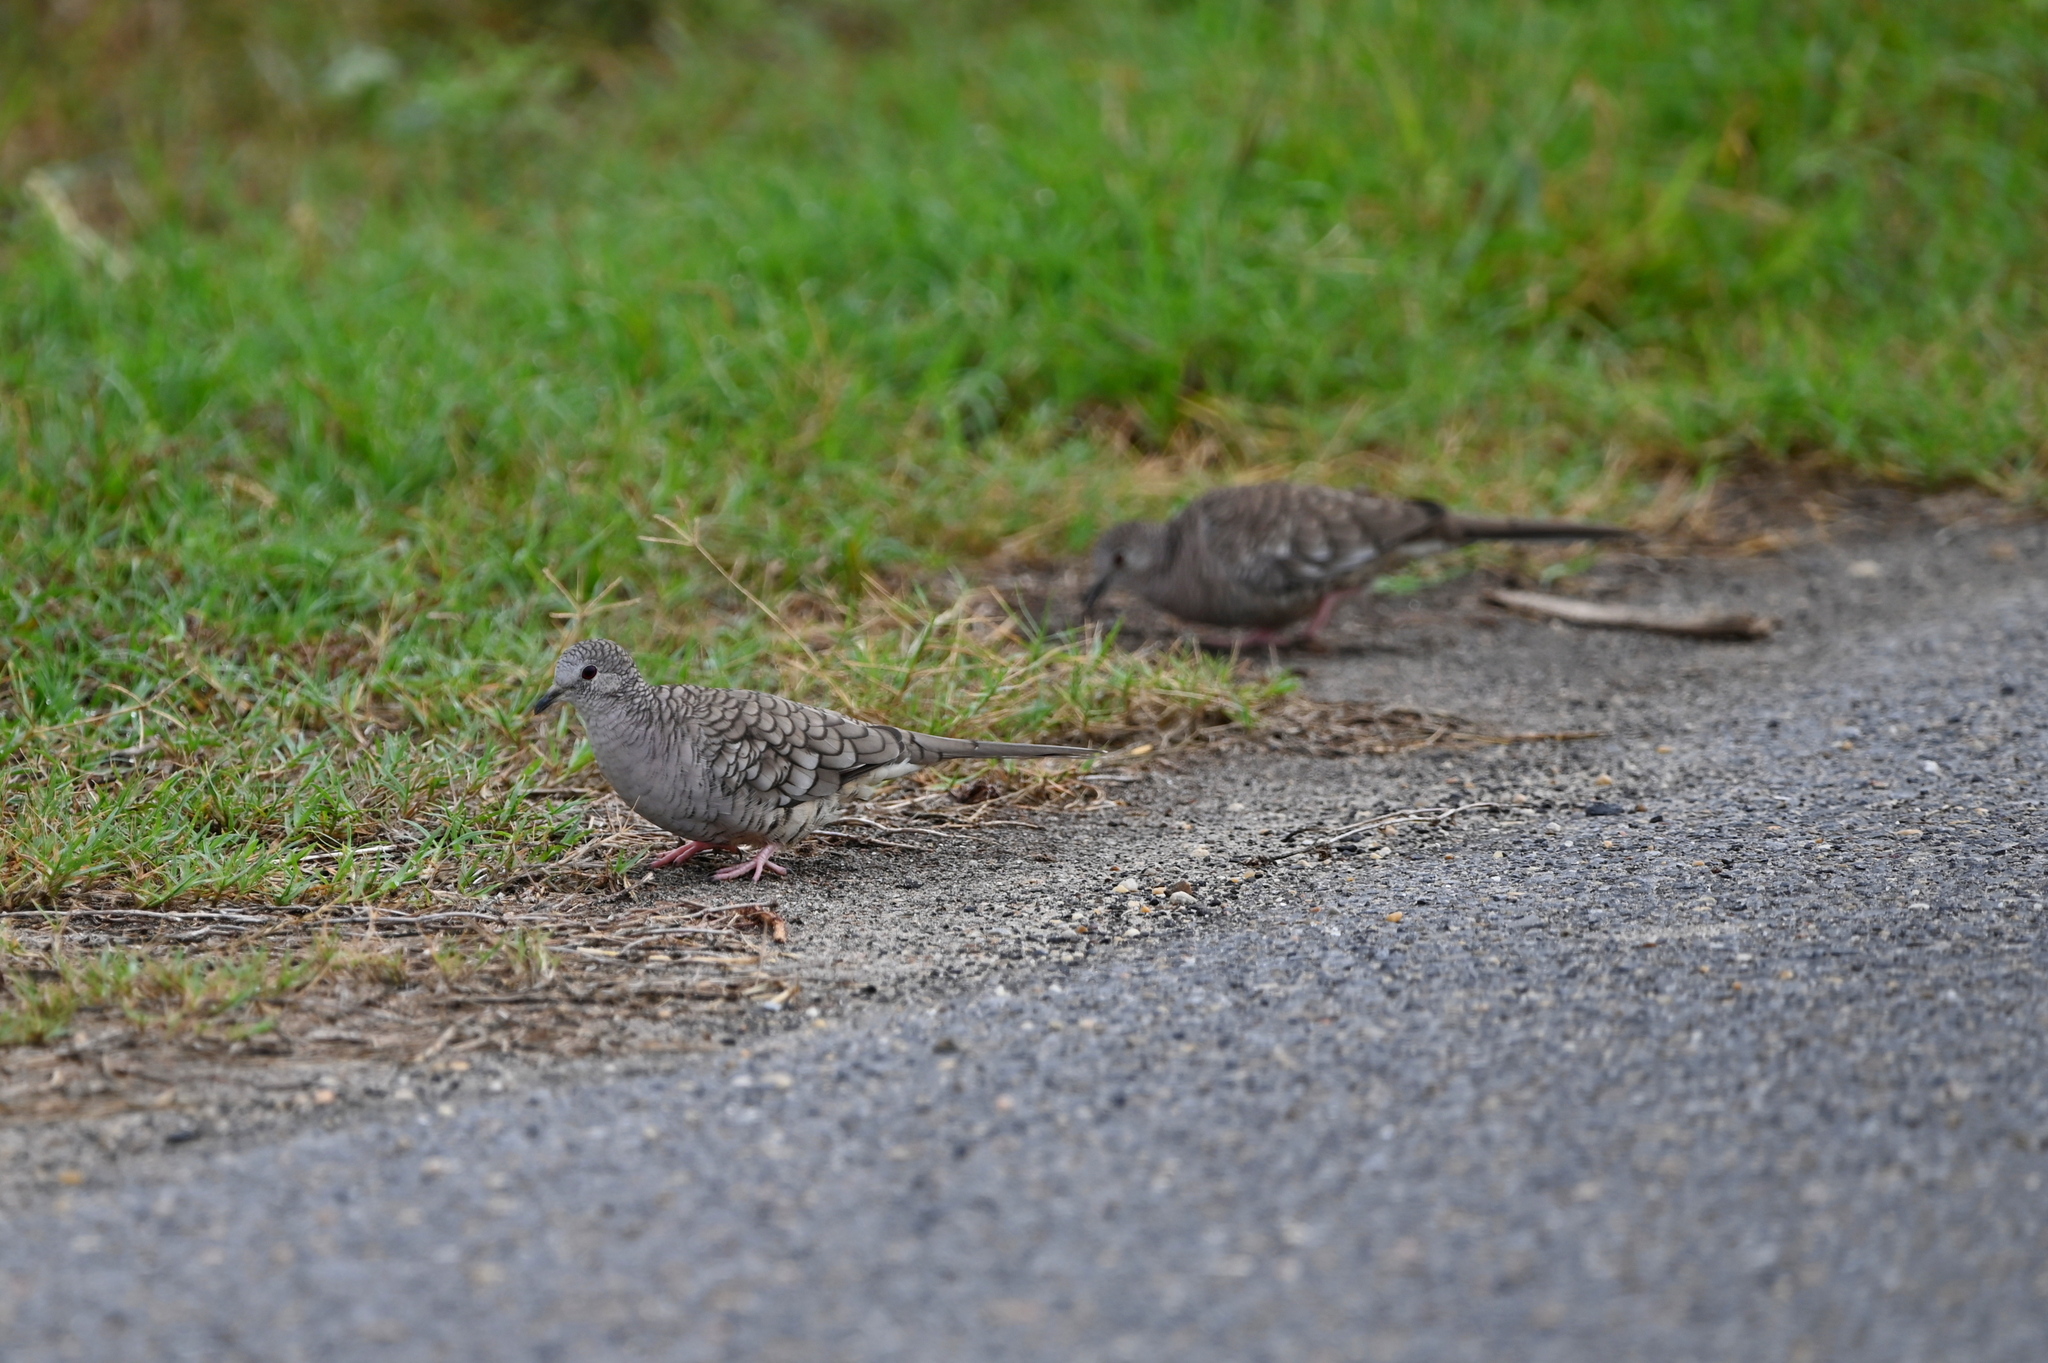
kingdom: Animalia
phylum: Chordata
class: Aves
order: Columbiformes
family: Columbidae
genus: Columbina
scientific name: Columbina inca
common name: Inca dove
